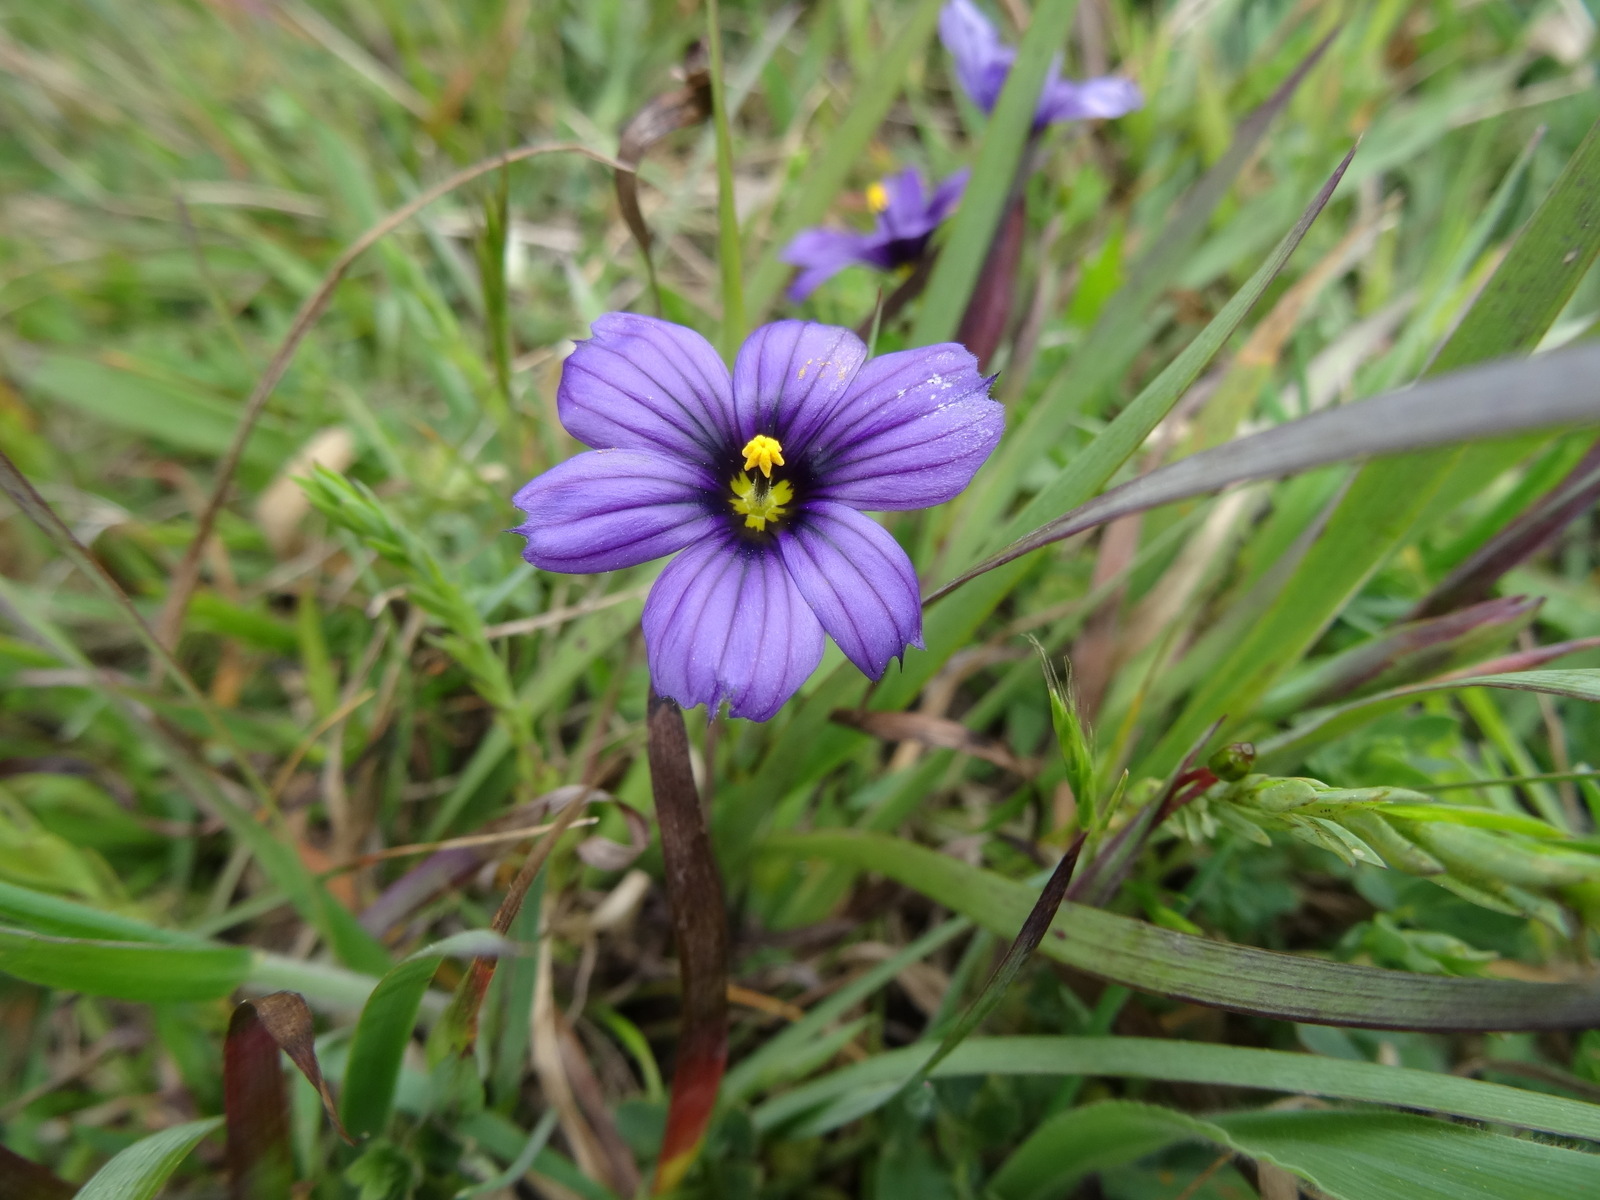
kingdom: Plantae
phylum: Tracheophyta
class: Liliopsida
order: Asparagales
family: Iridaceae
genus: Sisyrinchium
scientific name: Sisyrinchium bellum
